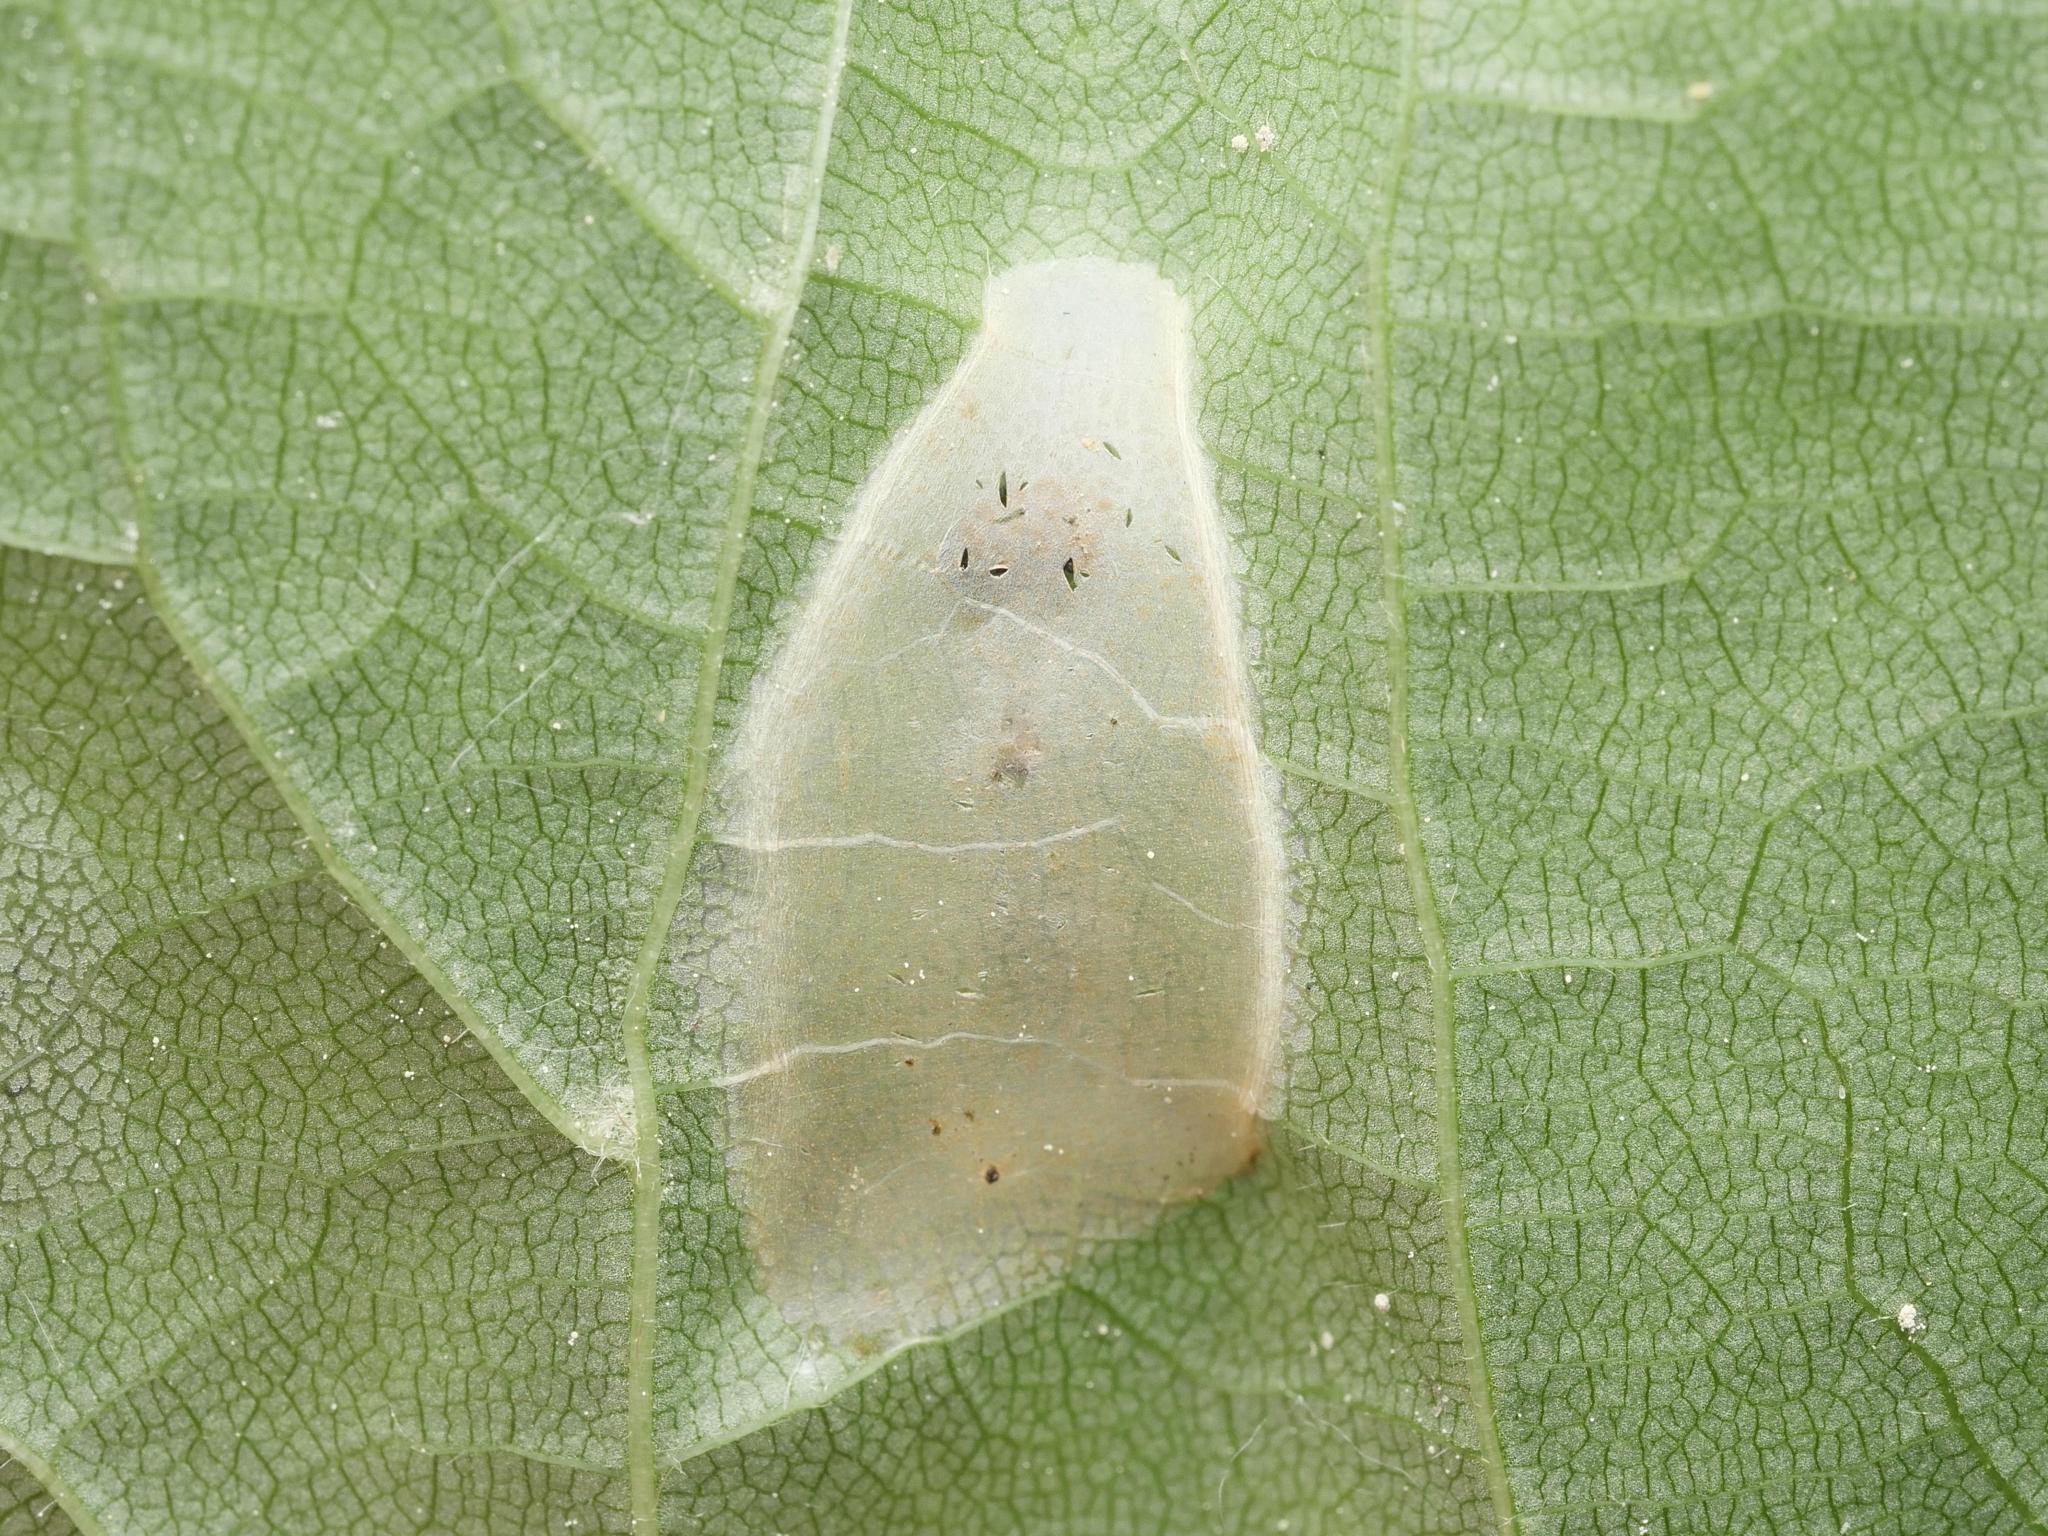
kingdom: Animalia
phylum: Arthropoda
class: Insecta
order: Lepidoptera
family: Gracillariidae
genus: Phyllonorycter
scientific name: Phyllonorycter issikii
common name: Linden midget
